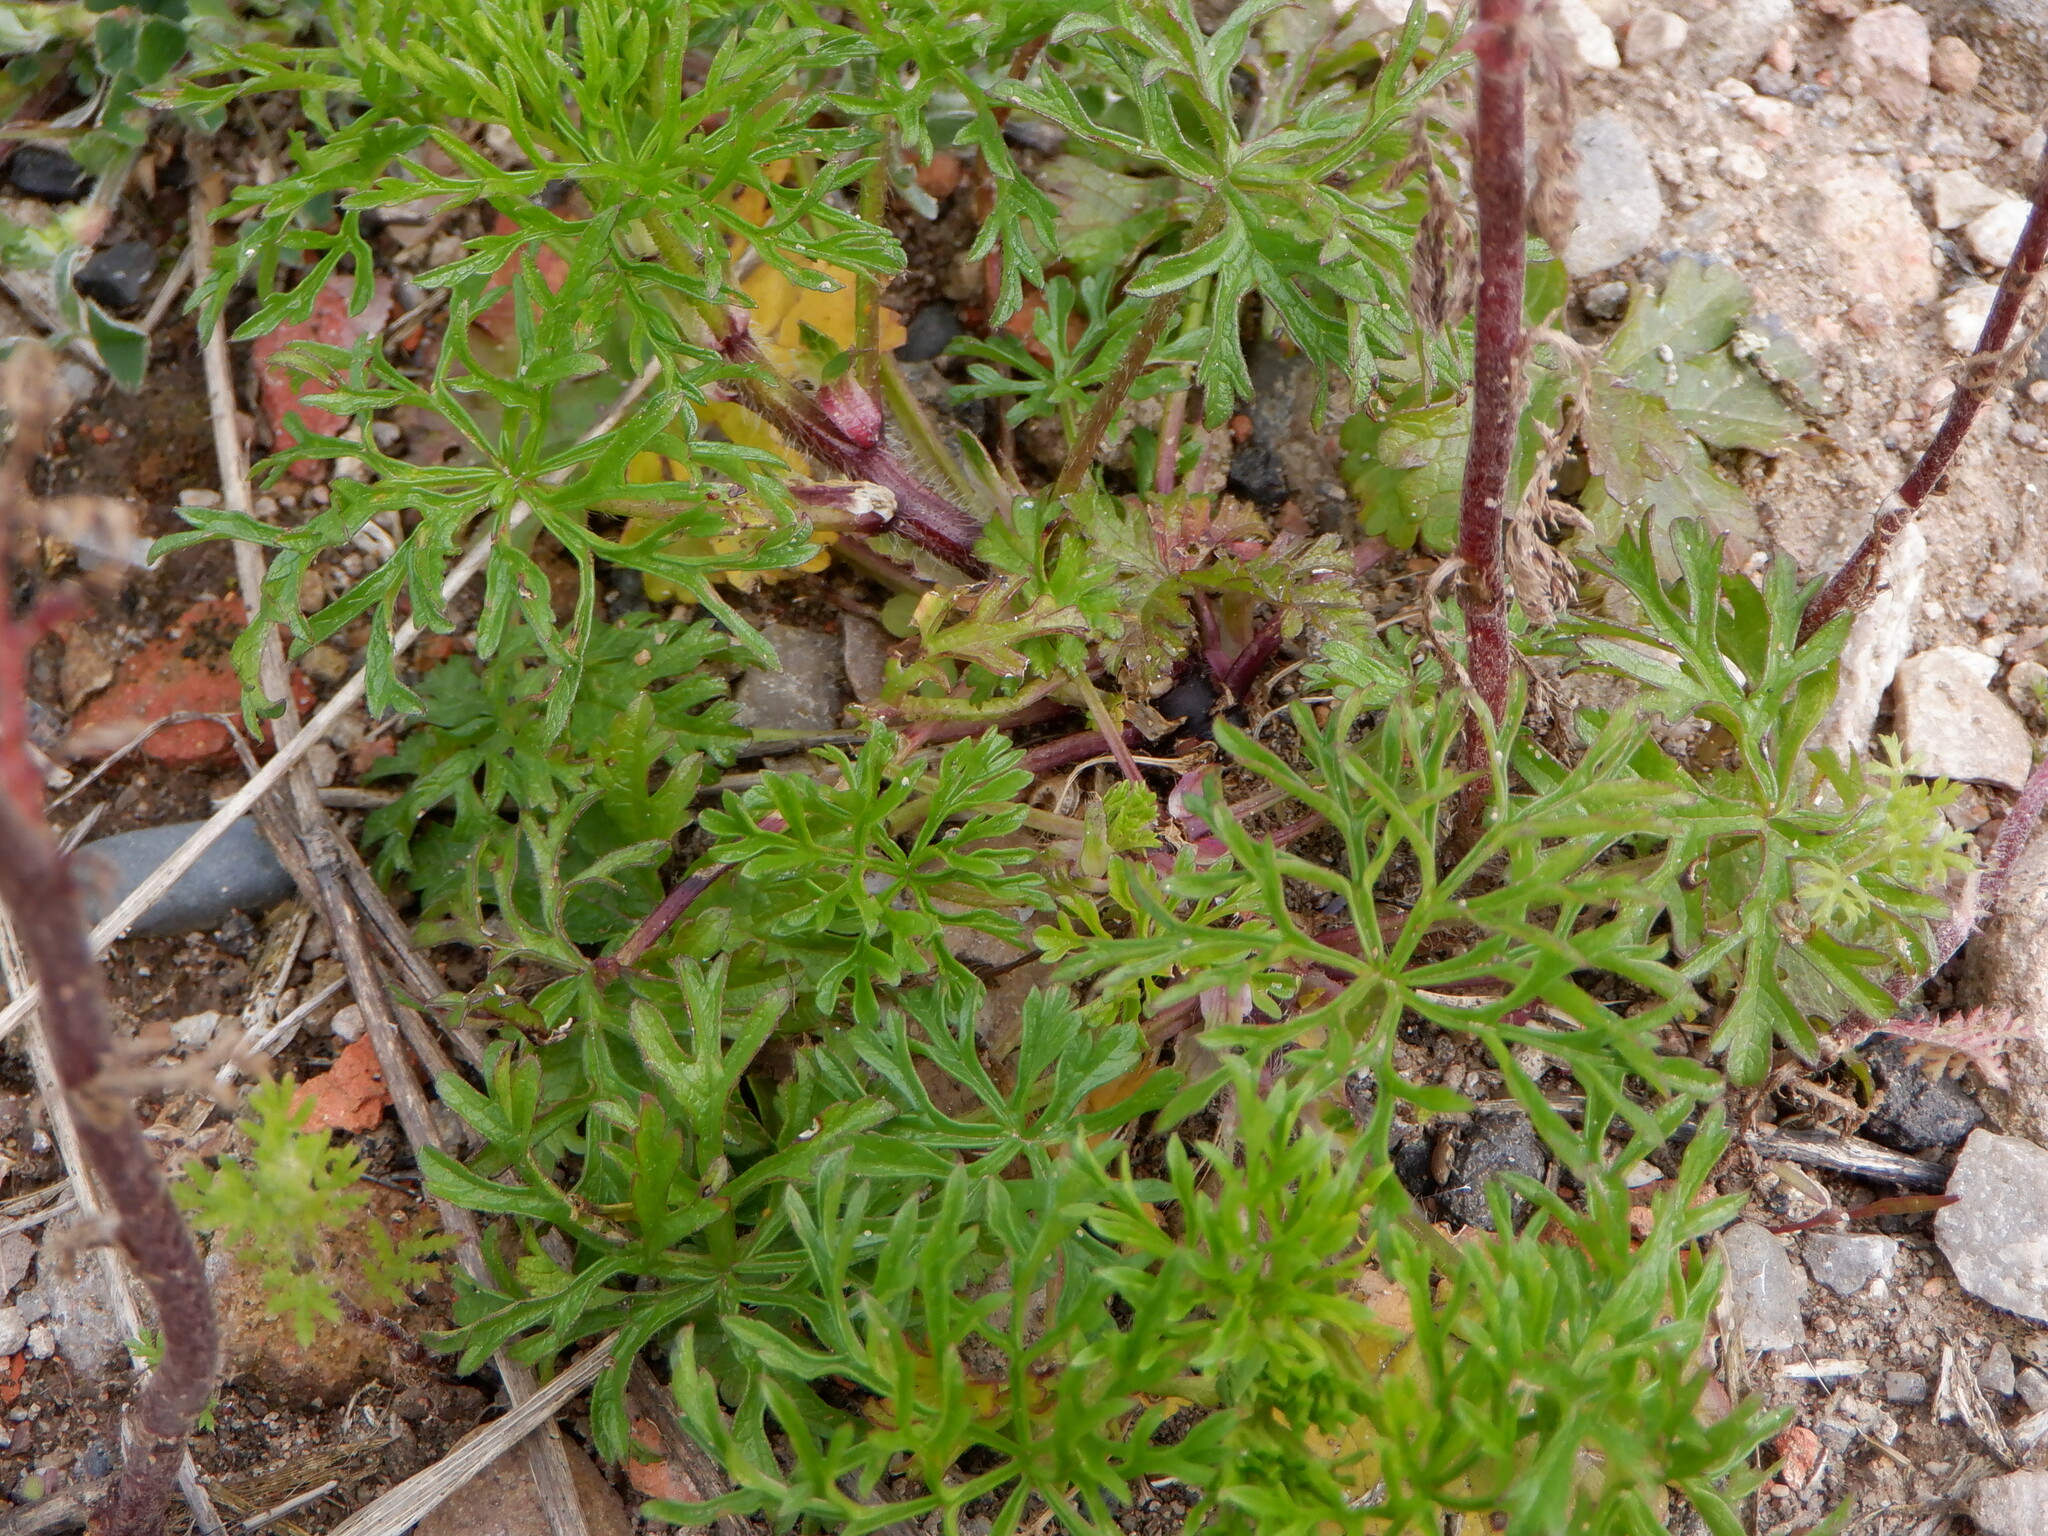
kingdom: Plantae
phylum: Tracheophyta
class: Magnoliopsida
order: Malvales
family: Malvaceae
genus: Malva
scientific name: Malva moschata
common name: Musk mallow
